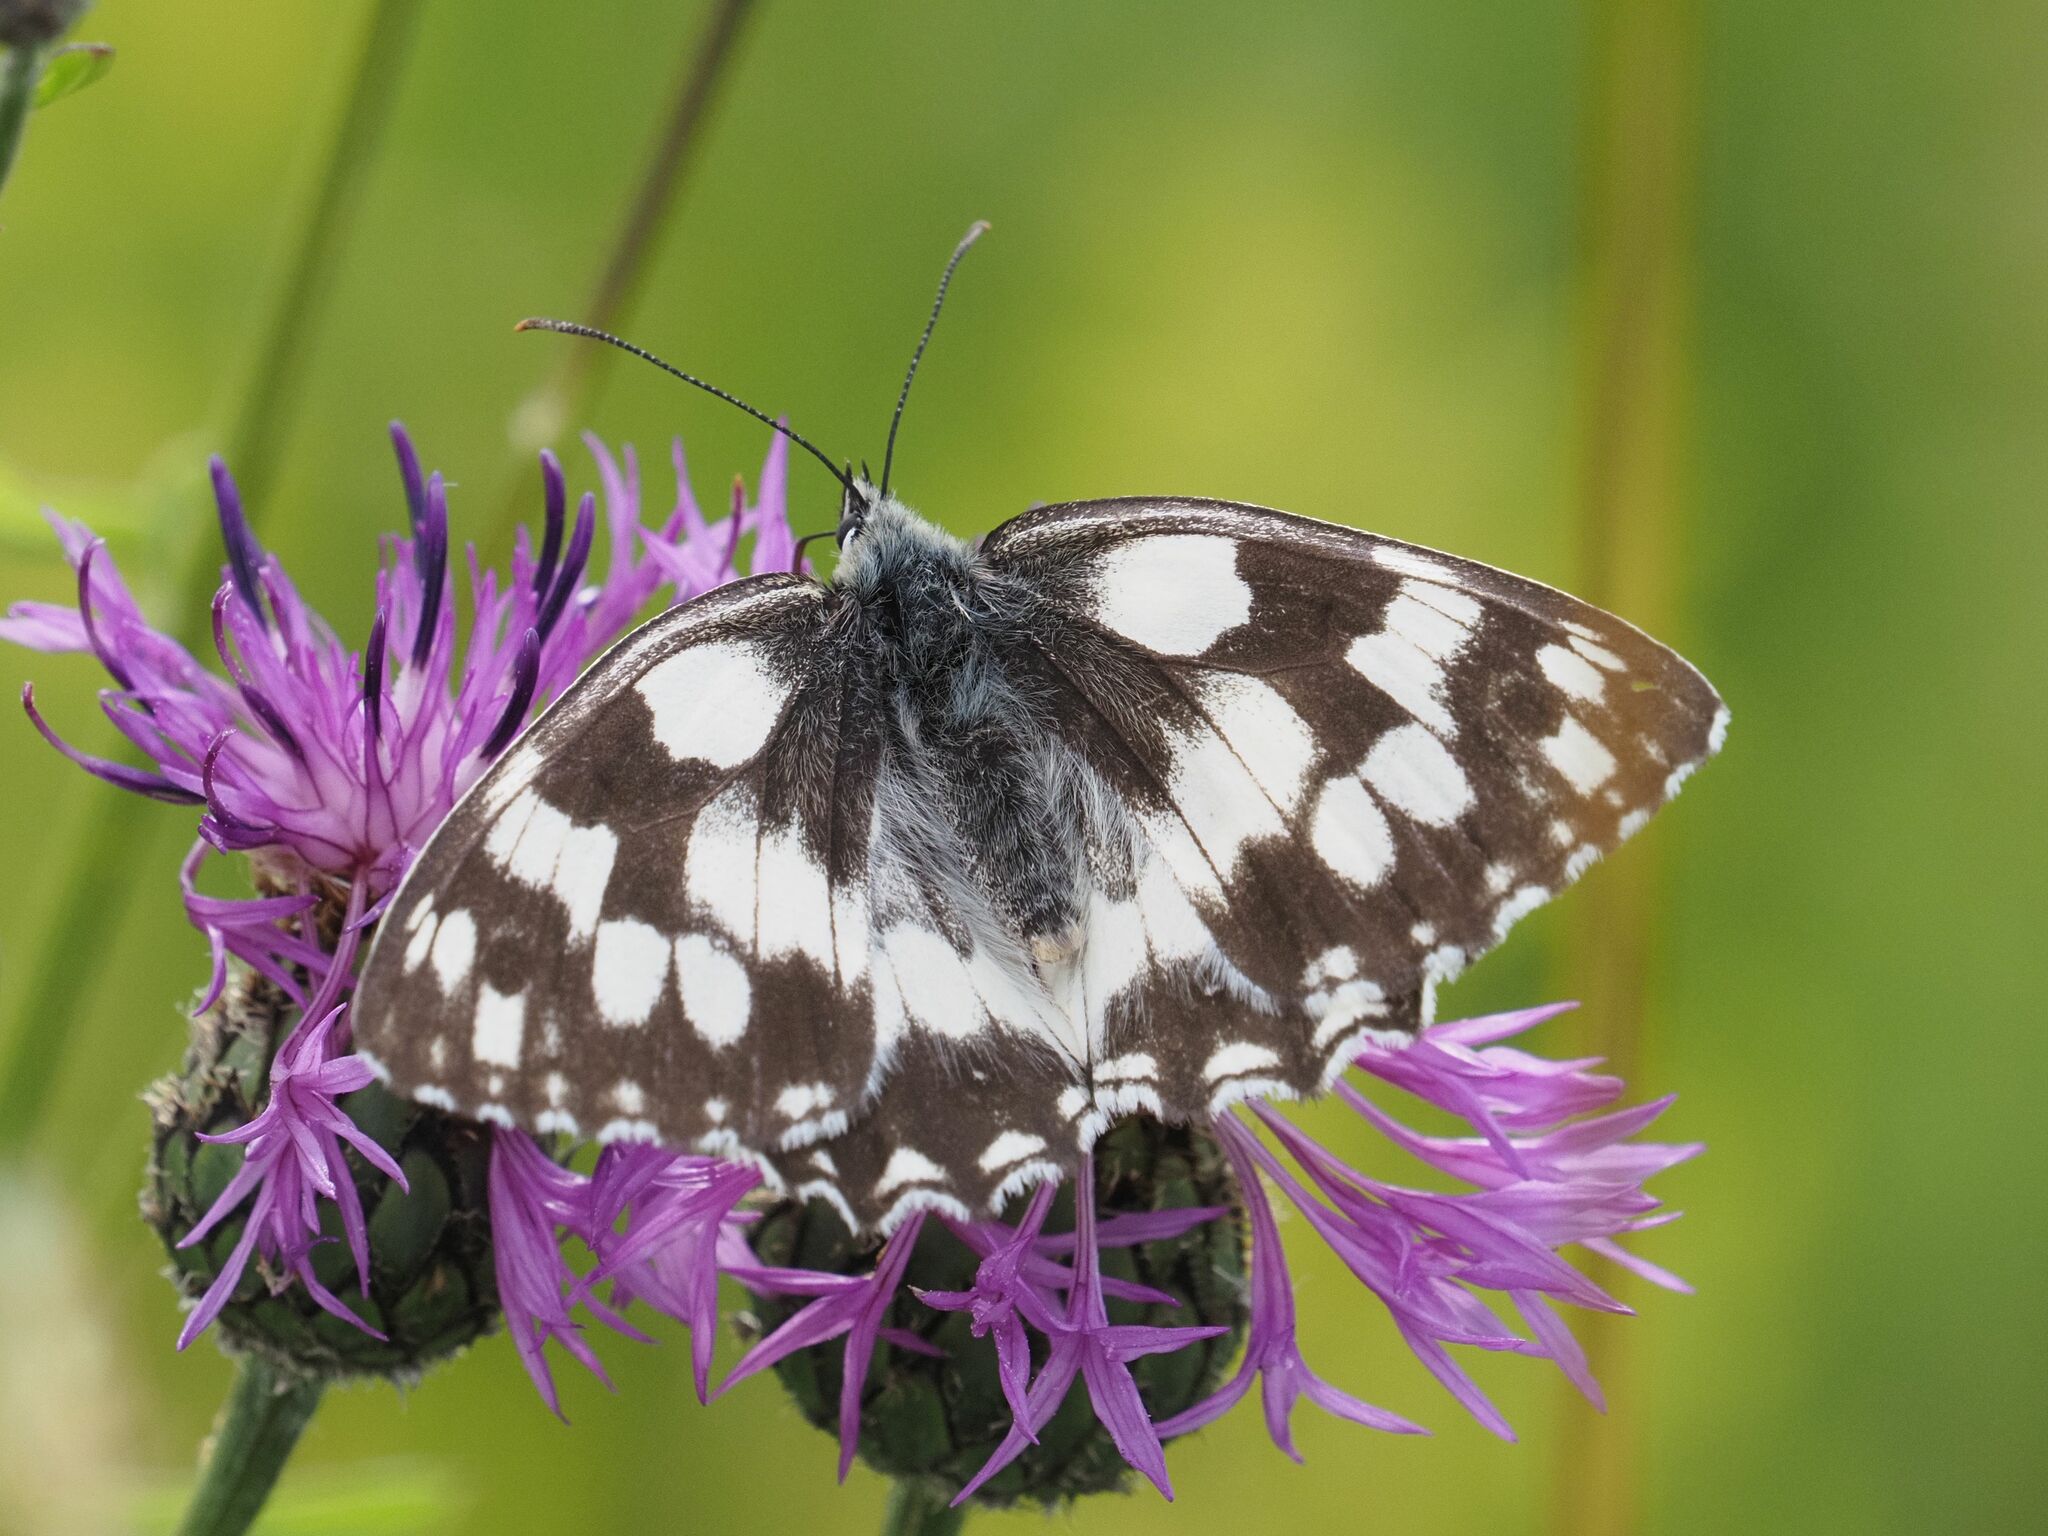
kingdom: Animalia
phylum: Arthropoda
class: Insecta
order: Lepidoptera
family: Nymphalidae
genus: Melanargia
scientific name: Melanargia galathea
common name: Marbled white
